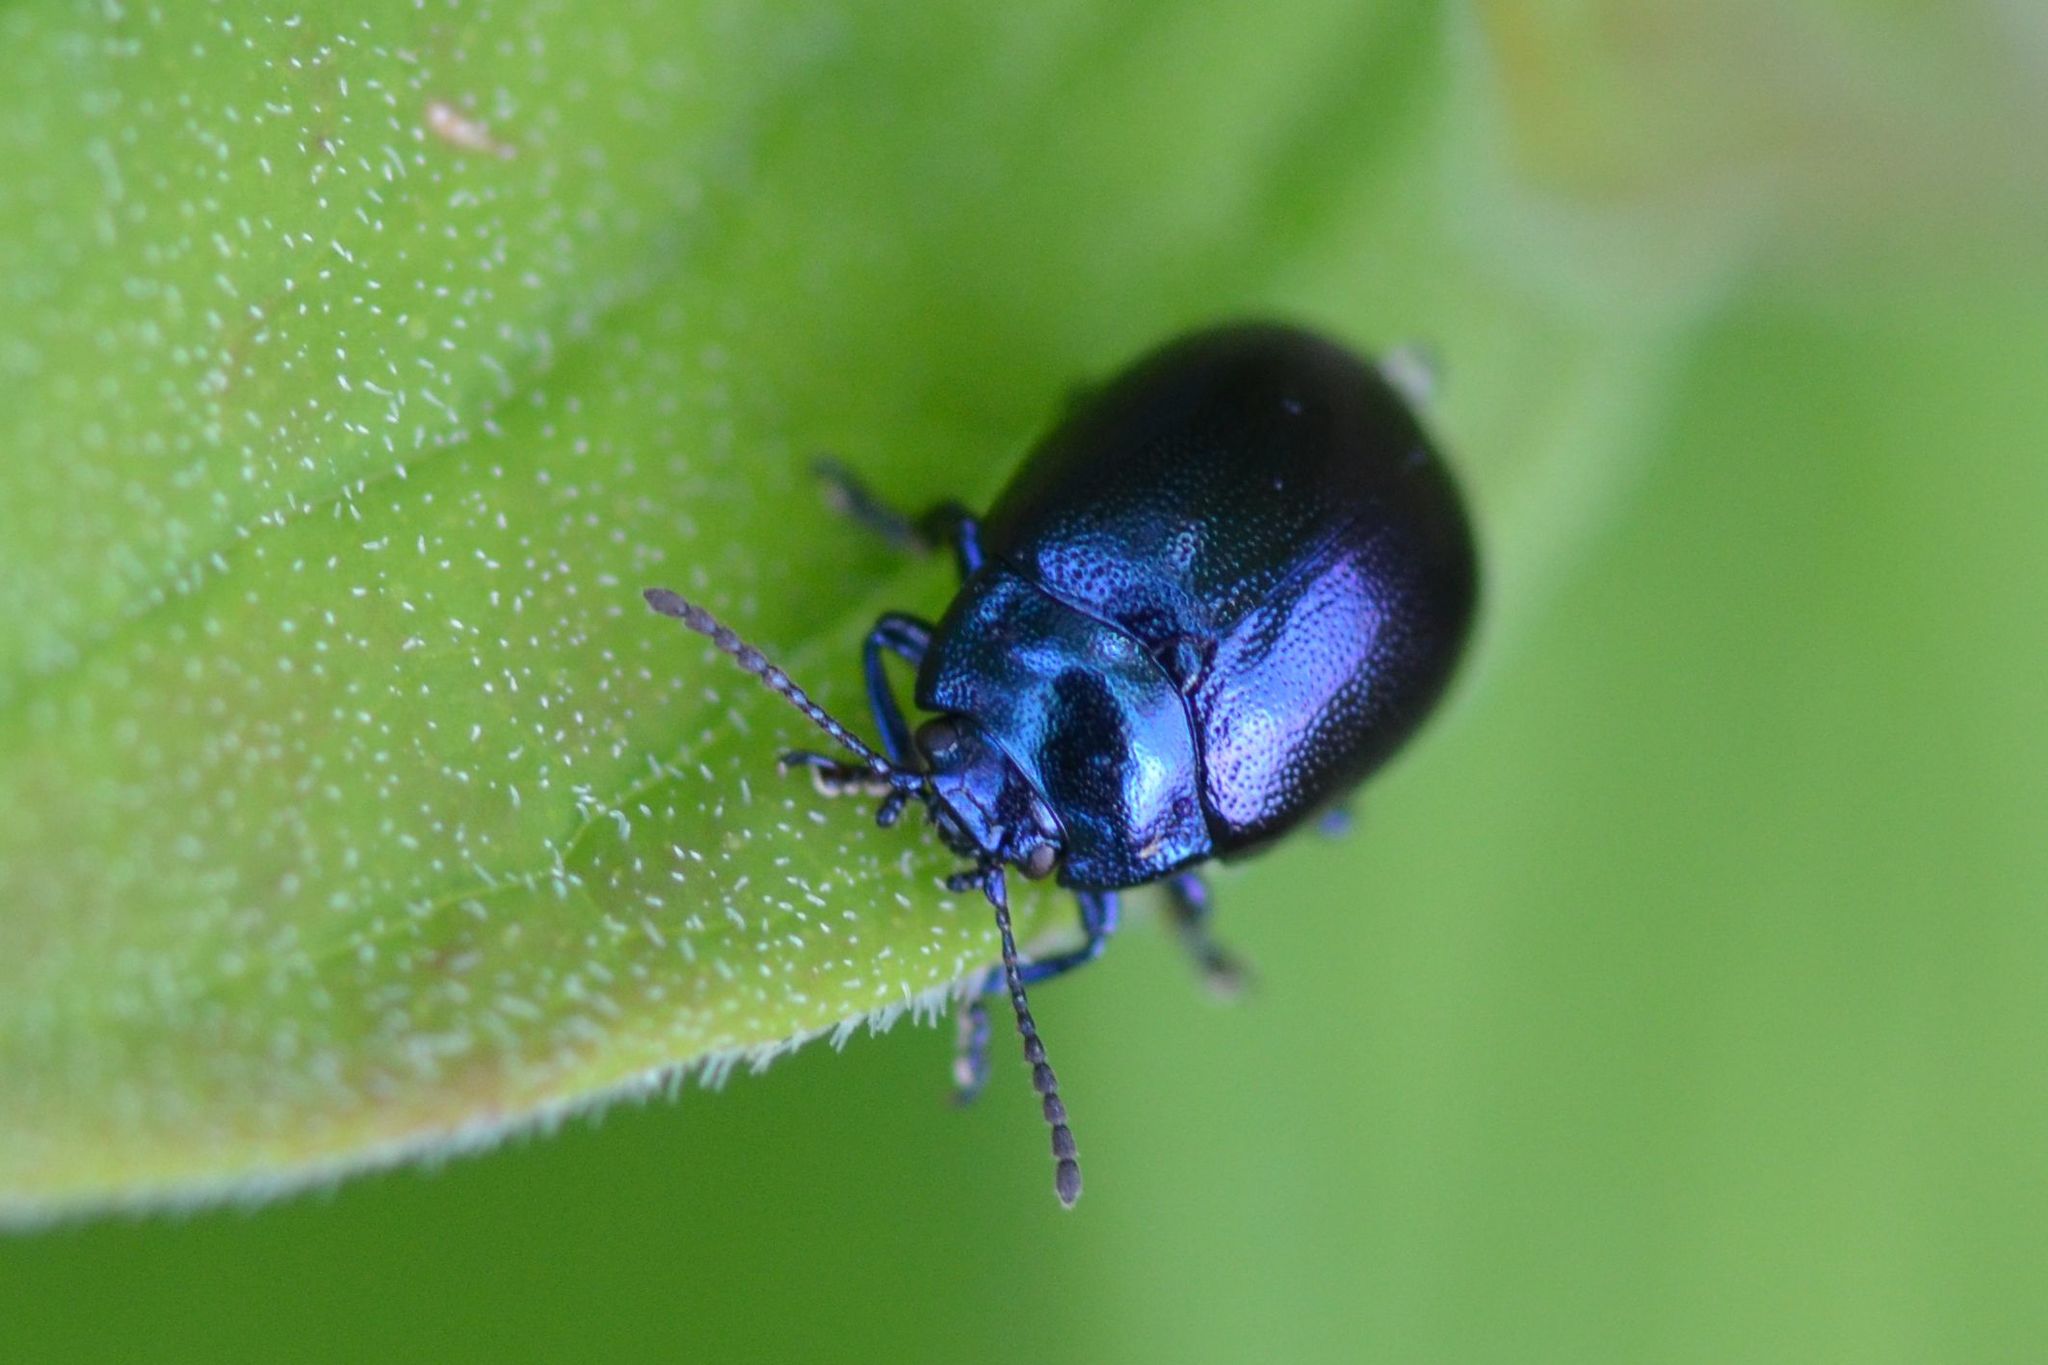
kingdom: Animalia
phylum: Arthropoda
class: Insecta
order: Coleoptera
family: Chrysomelidae
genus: Chrysolina
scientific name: Chrysolina varians
